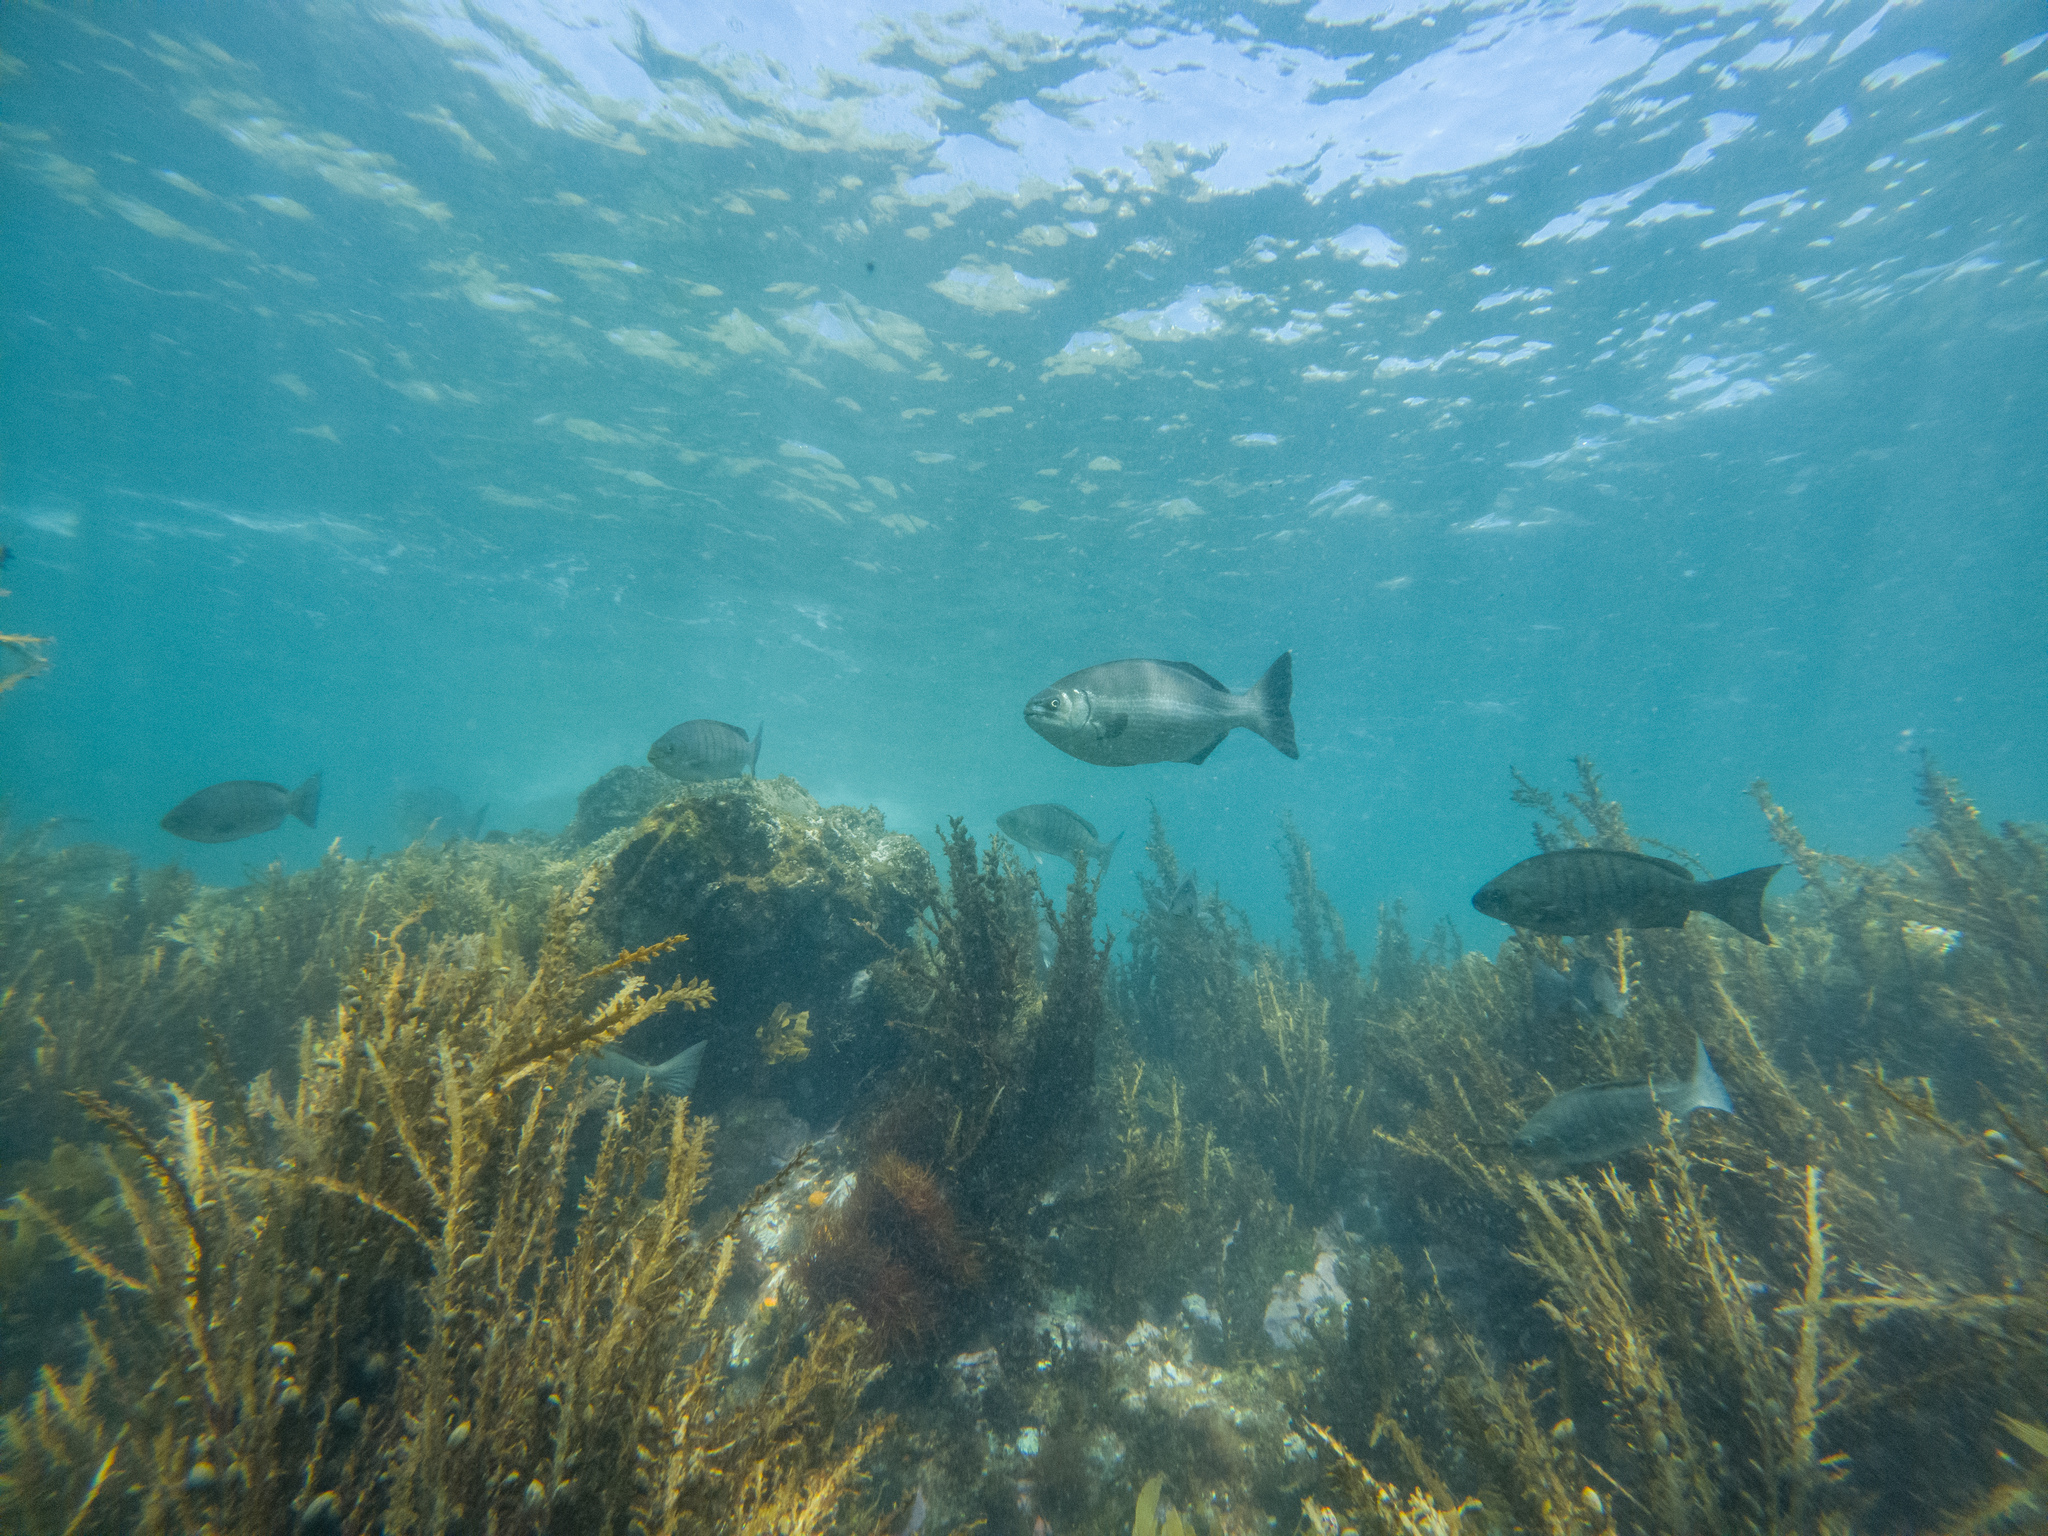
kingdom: Animalia
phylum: Chordata
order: Perciformes
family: Kyphosidae
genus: Kyphosus
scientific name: Kyphosus sydneyanus
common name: Silver drummer
